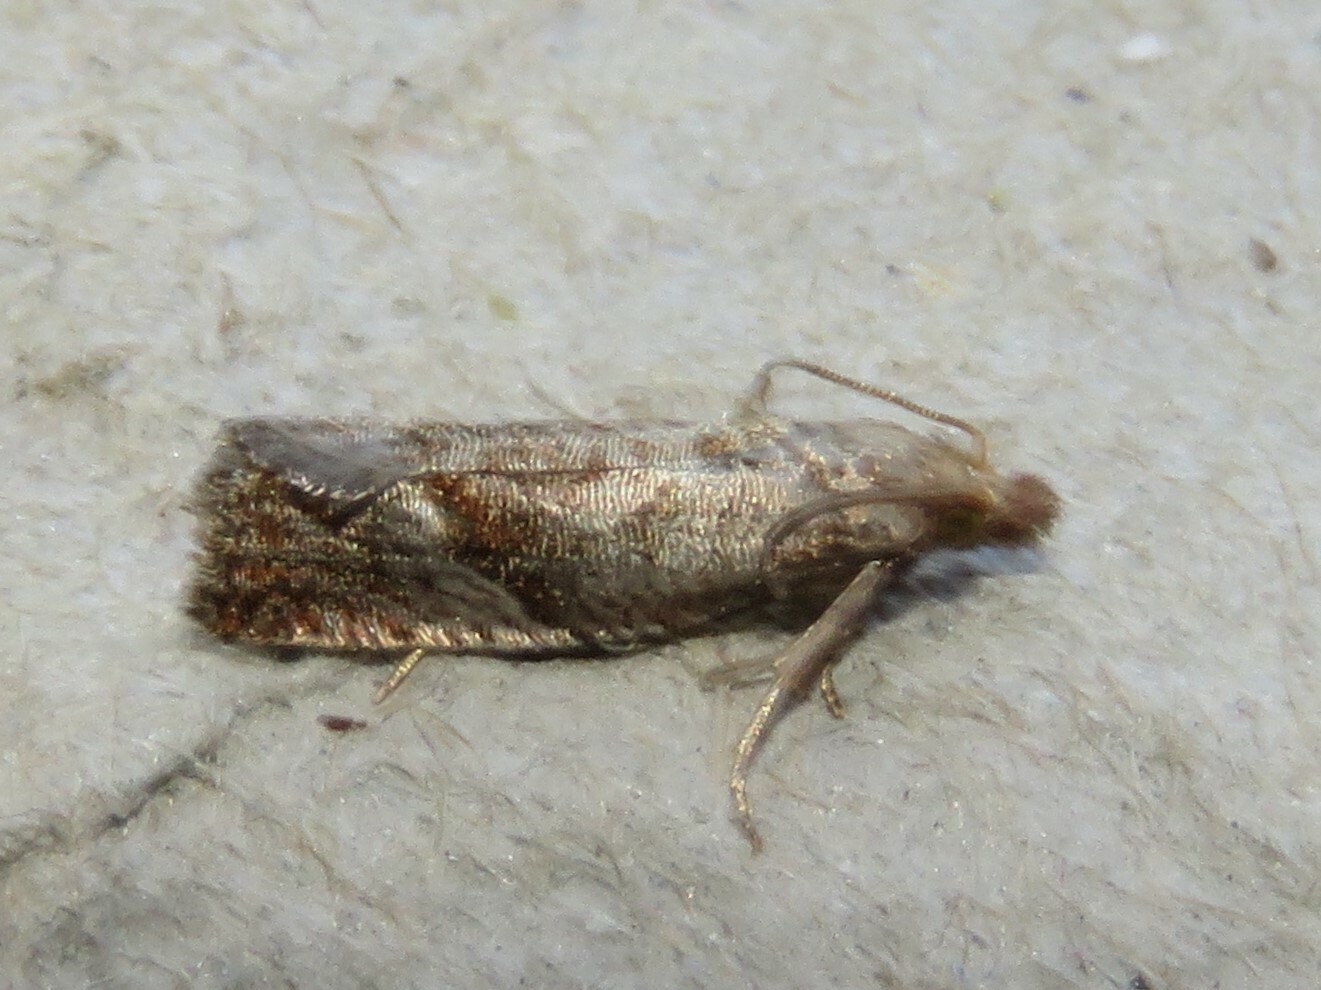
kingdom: Animalia
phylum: Arthropoda
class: Insecta
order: Lepidoptera
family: Tortricidae
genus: Pelochrista
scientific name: Pelochrista derelicta
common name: Derelict pelochrista moth
